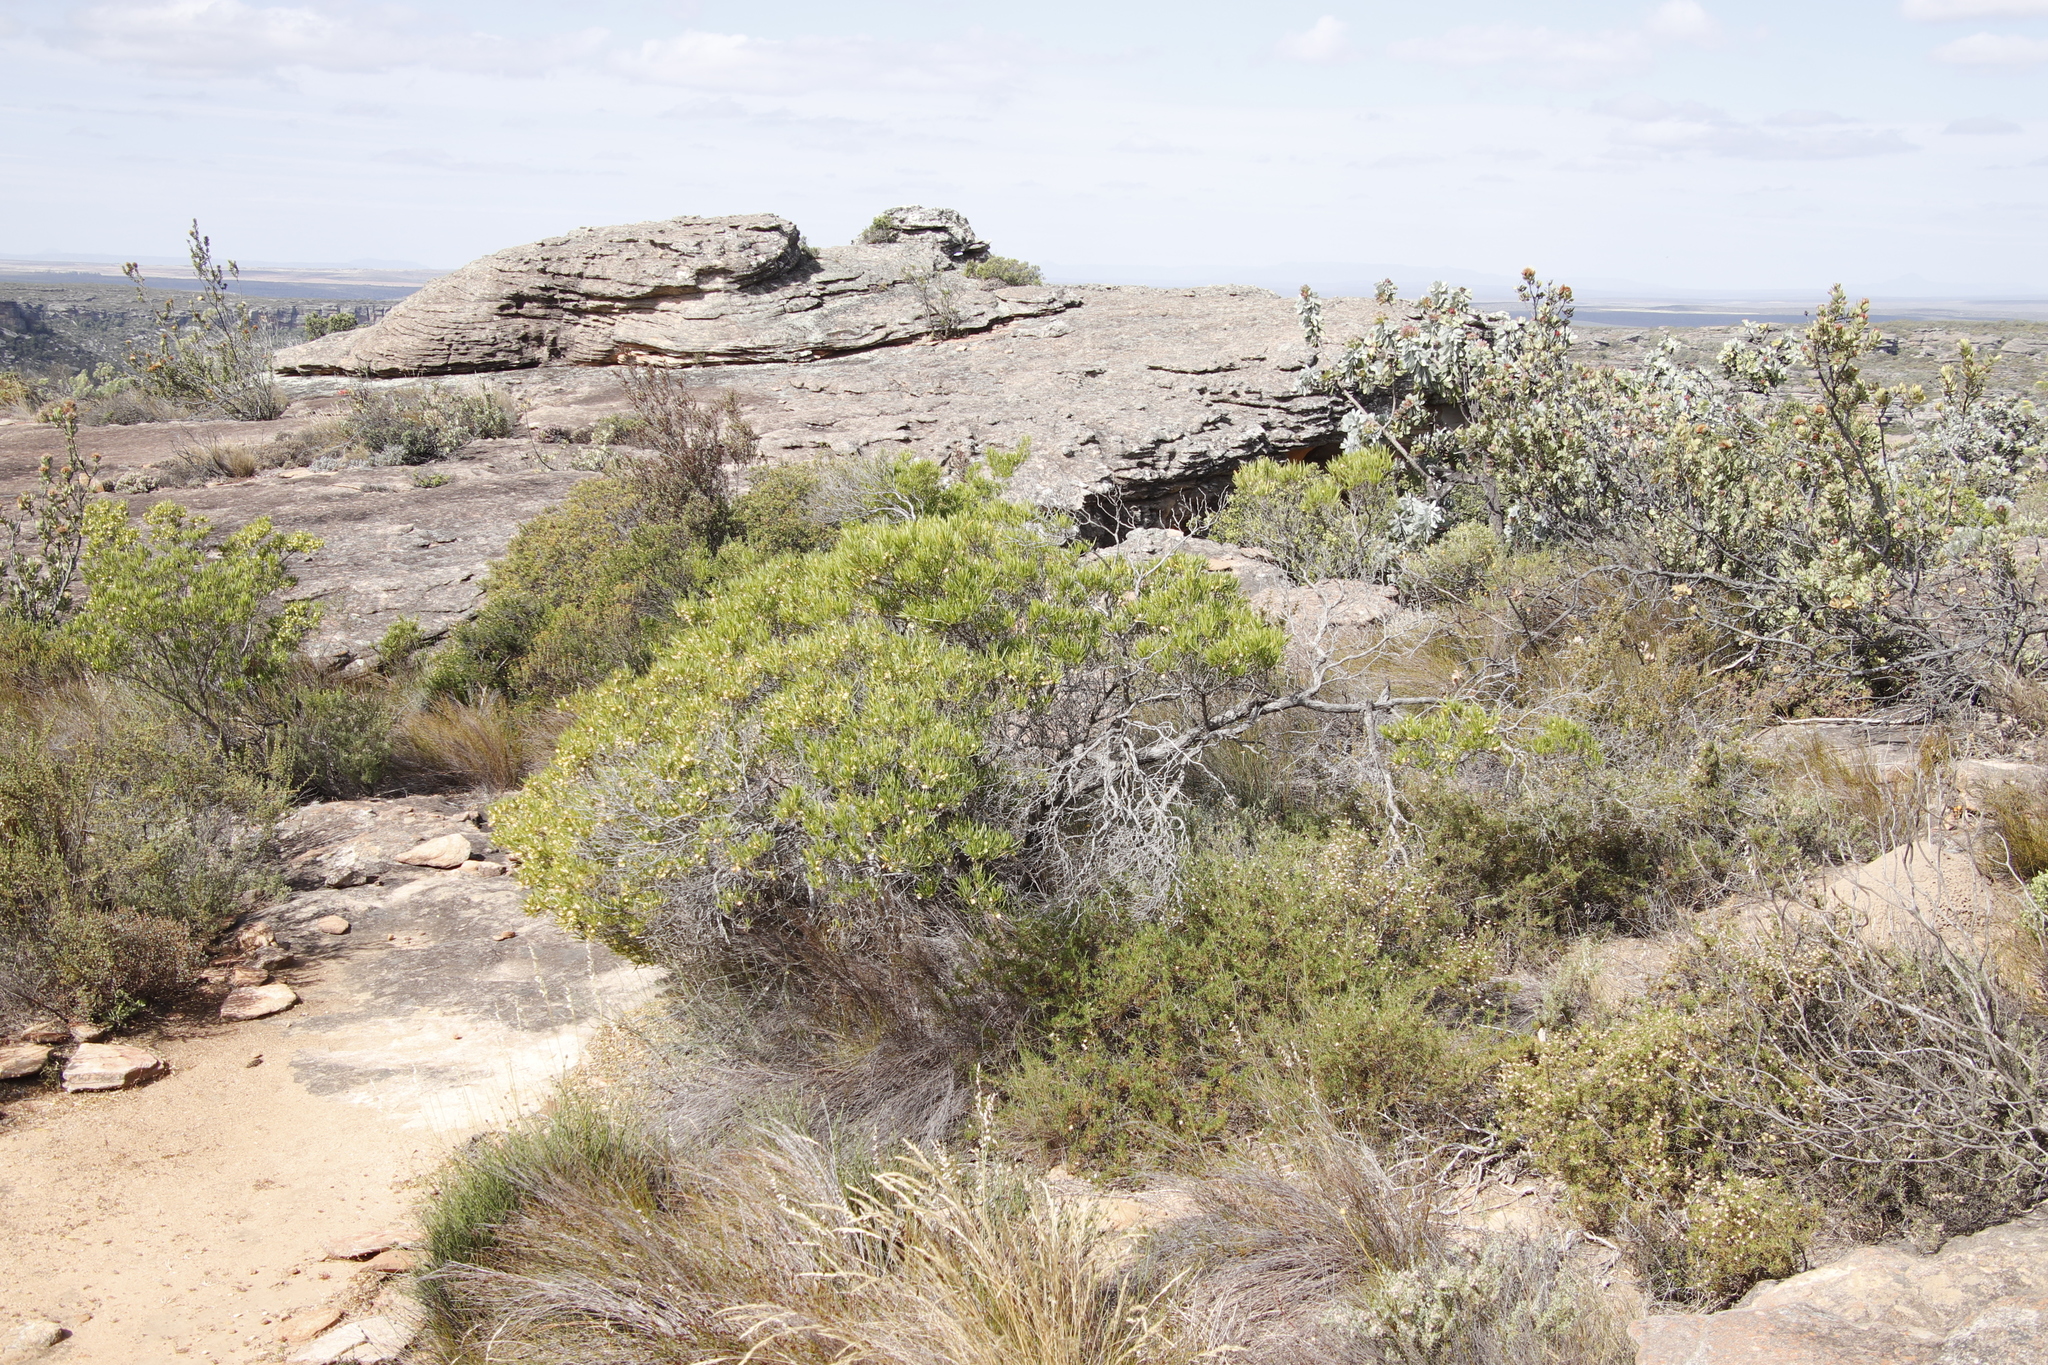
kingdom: Plantae
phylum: Tracheophyta
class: Magnoliopsida
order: Sapindales
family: Sapindaceae
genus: Dodonaea
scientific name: Dodonaea viscosa
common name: Hopbush
